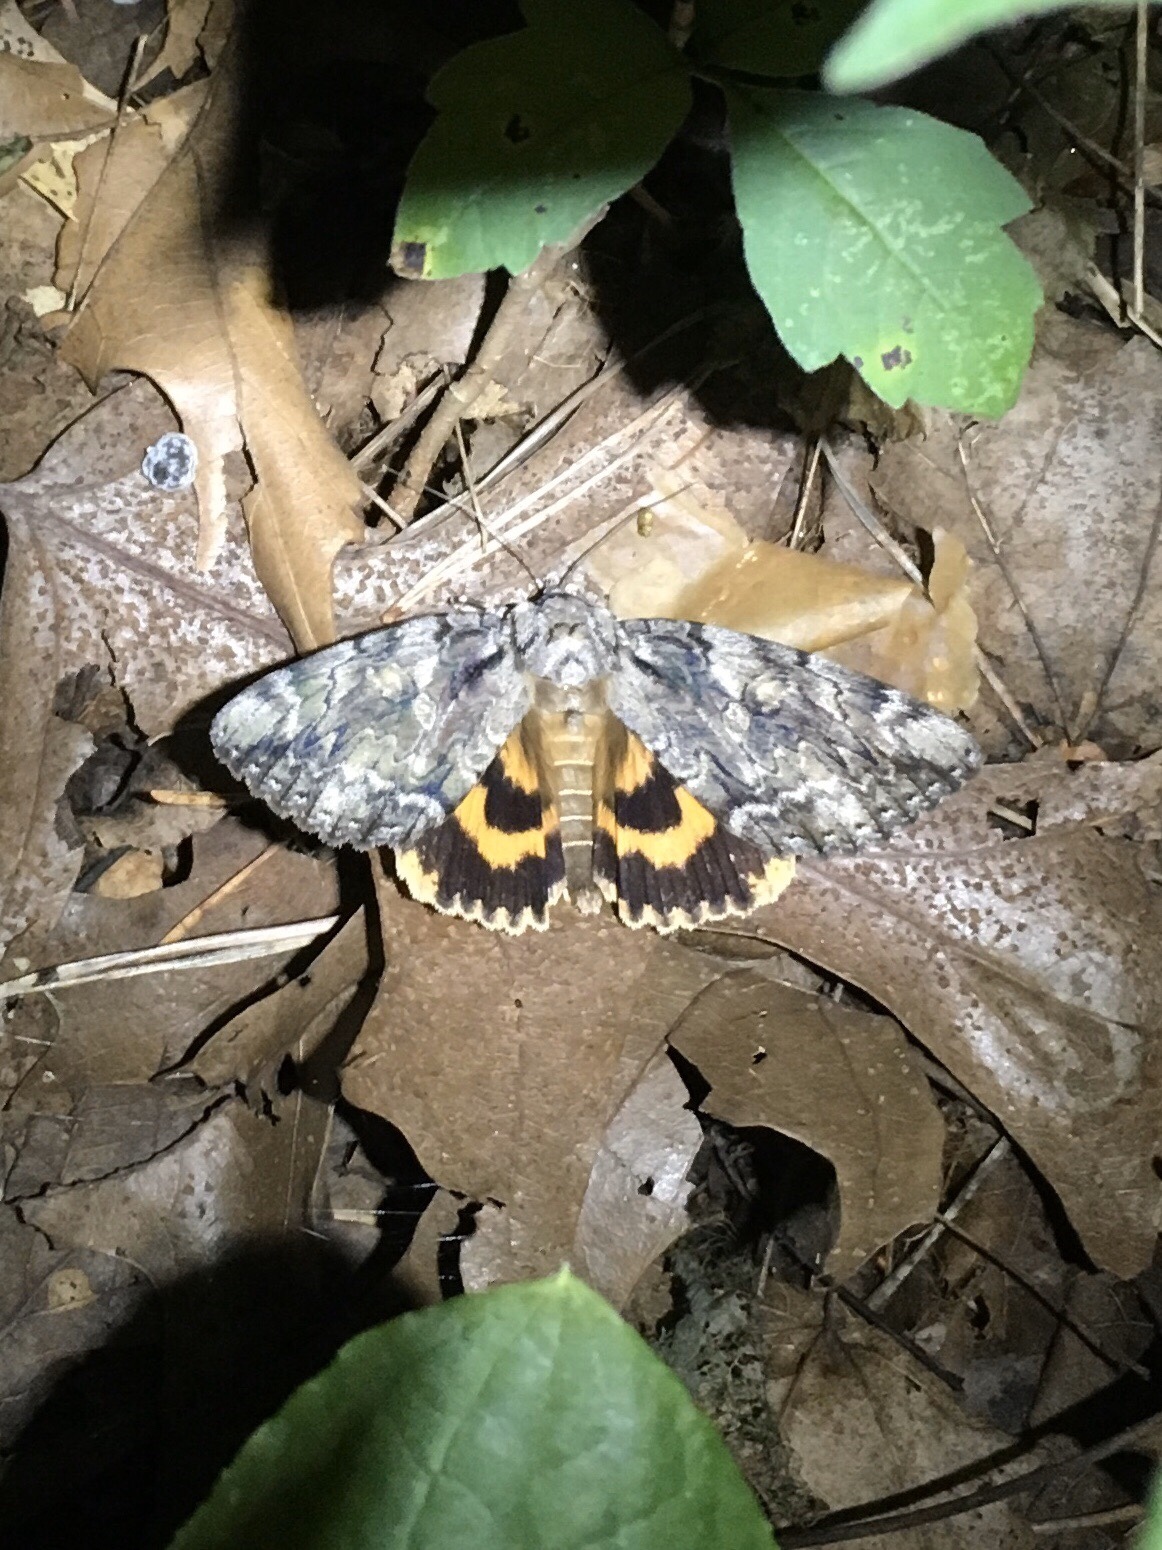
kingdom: Animalia
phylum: Arthropoda
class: Insecta
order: Lepidoptera
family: Erebidae
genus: Catocala
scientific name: Catocala neogama
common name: Bride underwing
